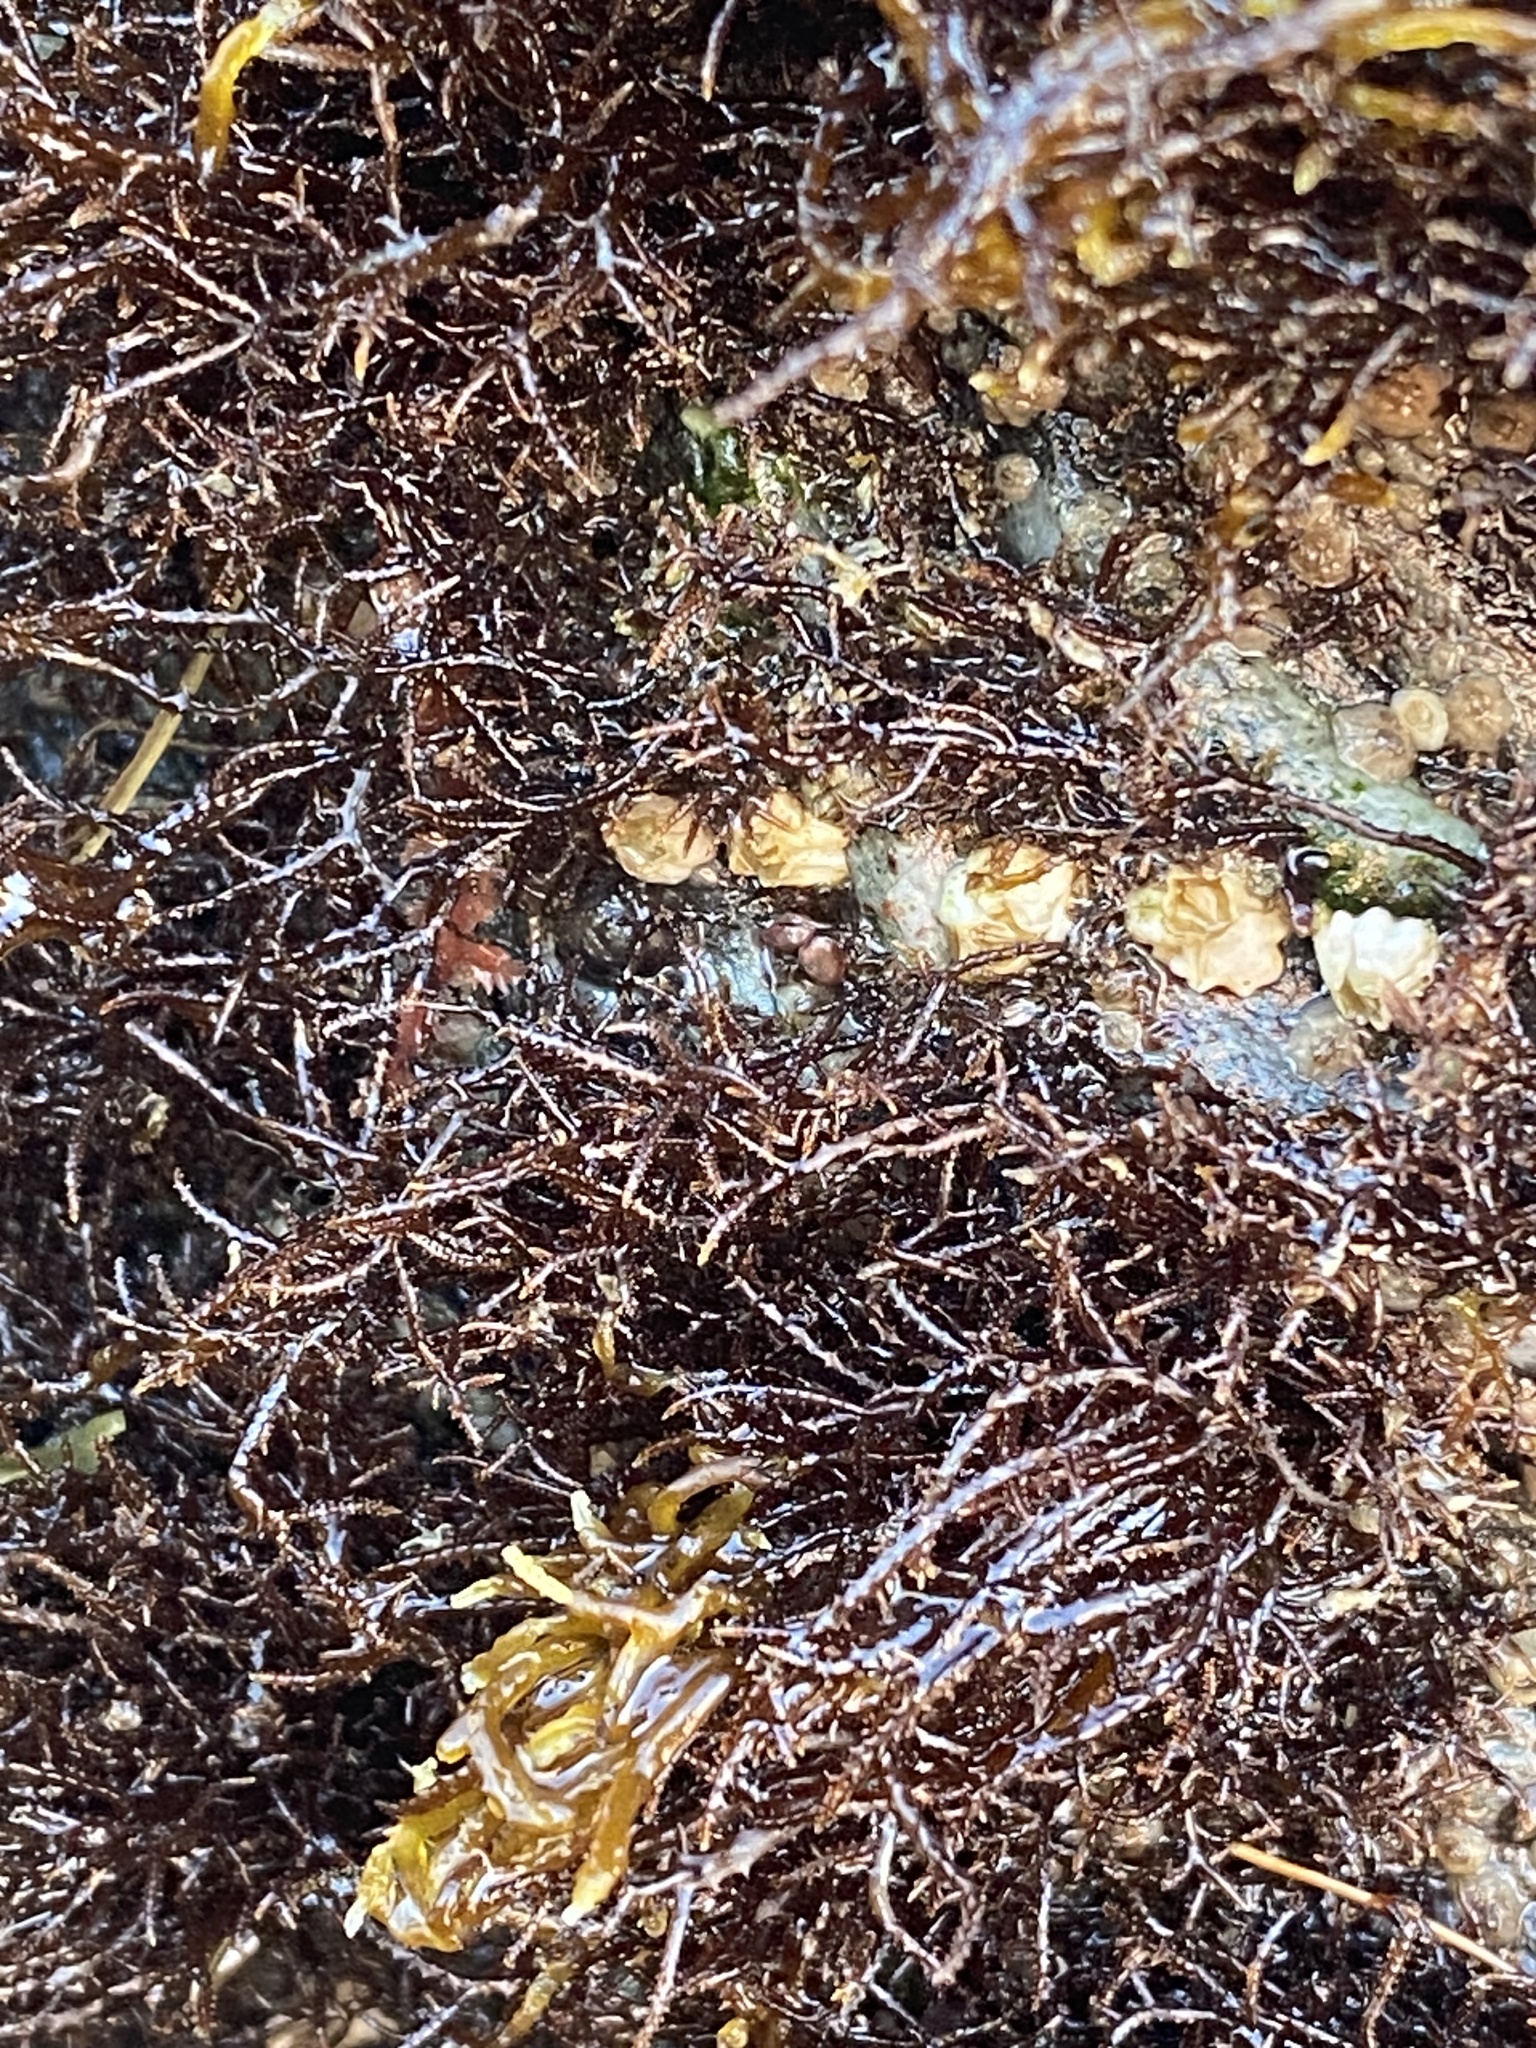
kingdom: Animalia
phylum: Mollusca
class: Polyplacophora
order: Chitonida
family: Mopaliidae
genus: Katharina
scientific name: Katharina tunicata
